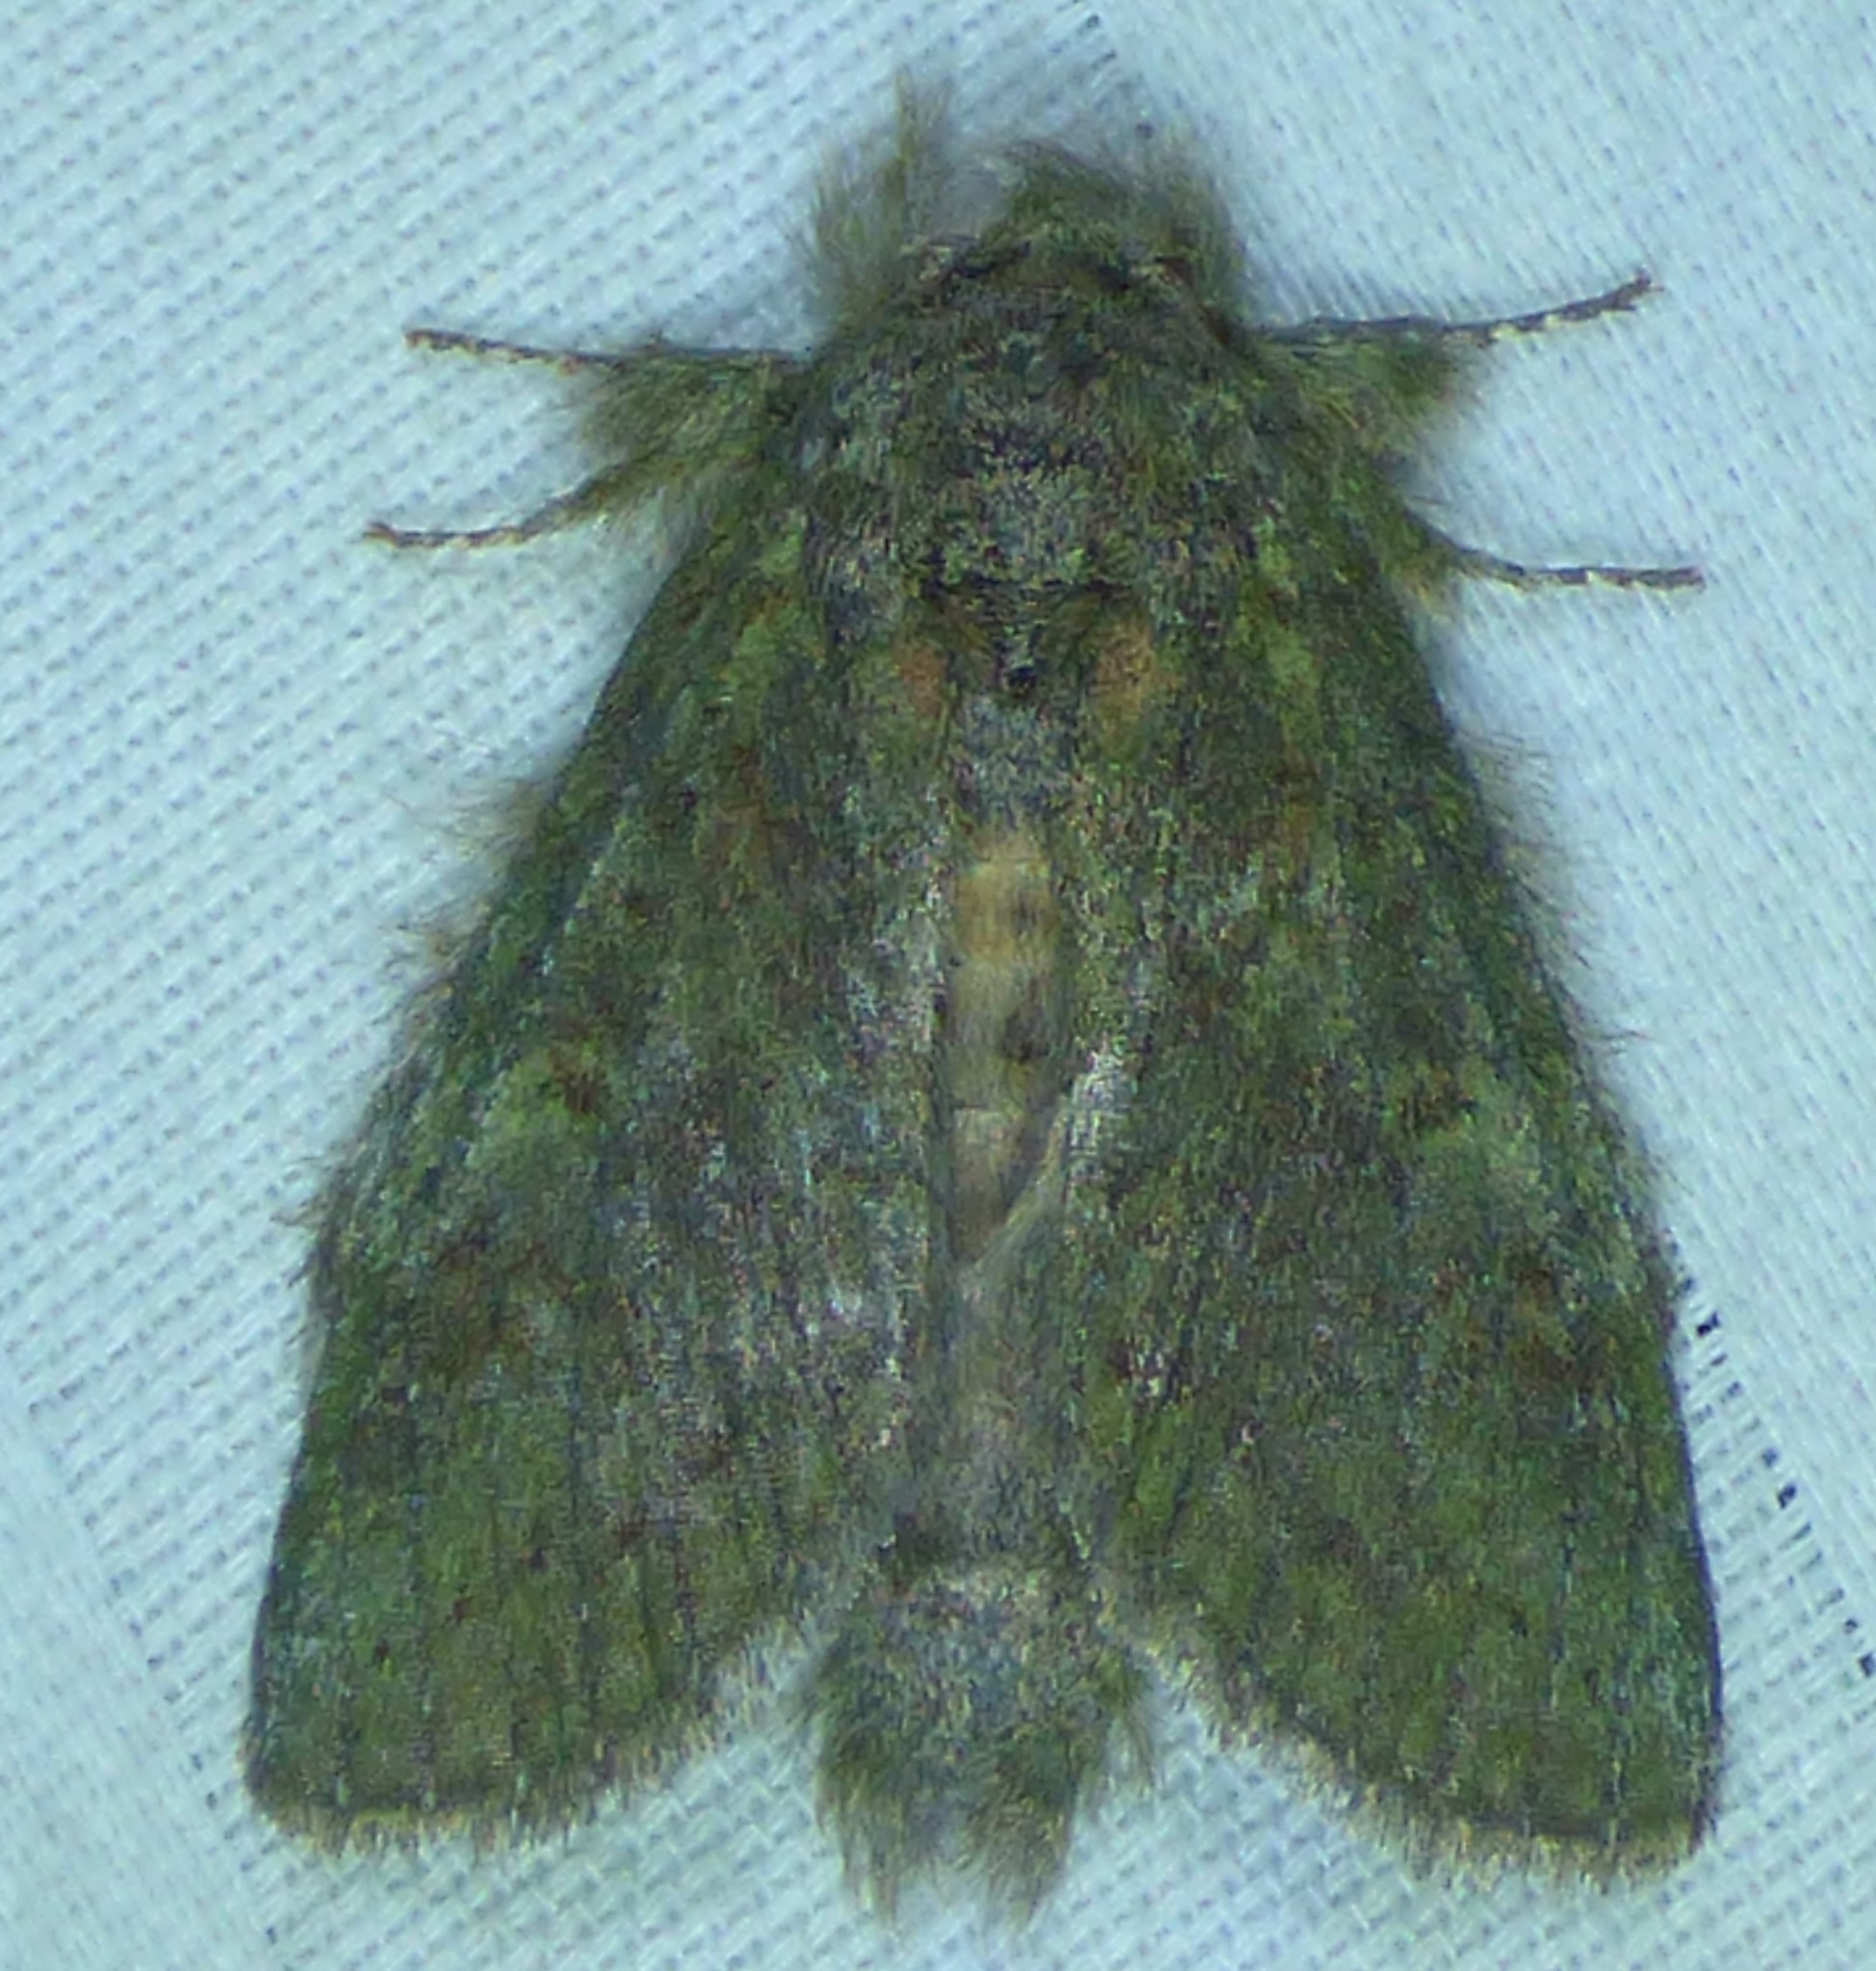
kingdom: Animalia
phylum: Arthropoda
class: Insecta
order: Lepidoptera
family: Notodontidae
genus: Disphragis
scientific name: Disphragis Cecrita biundata
